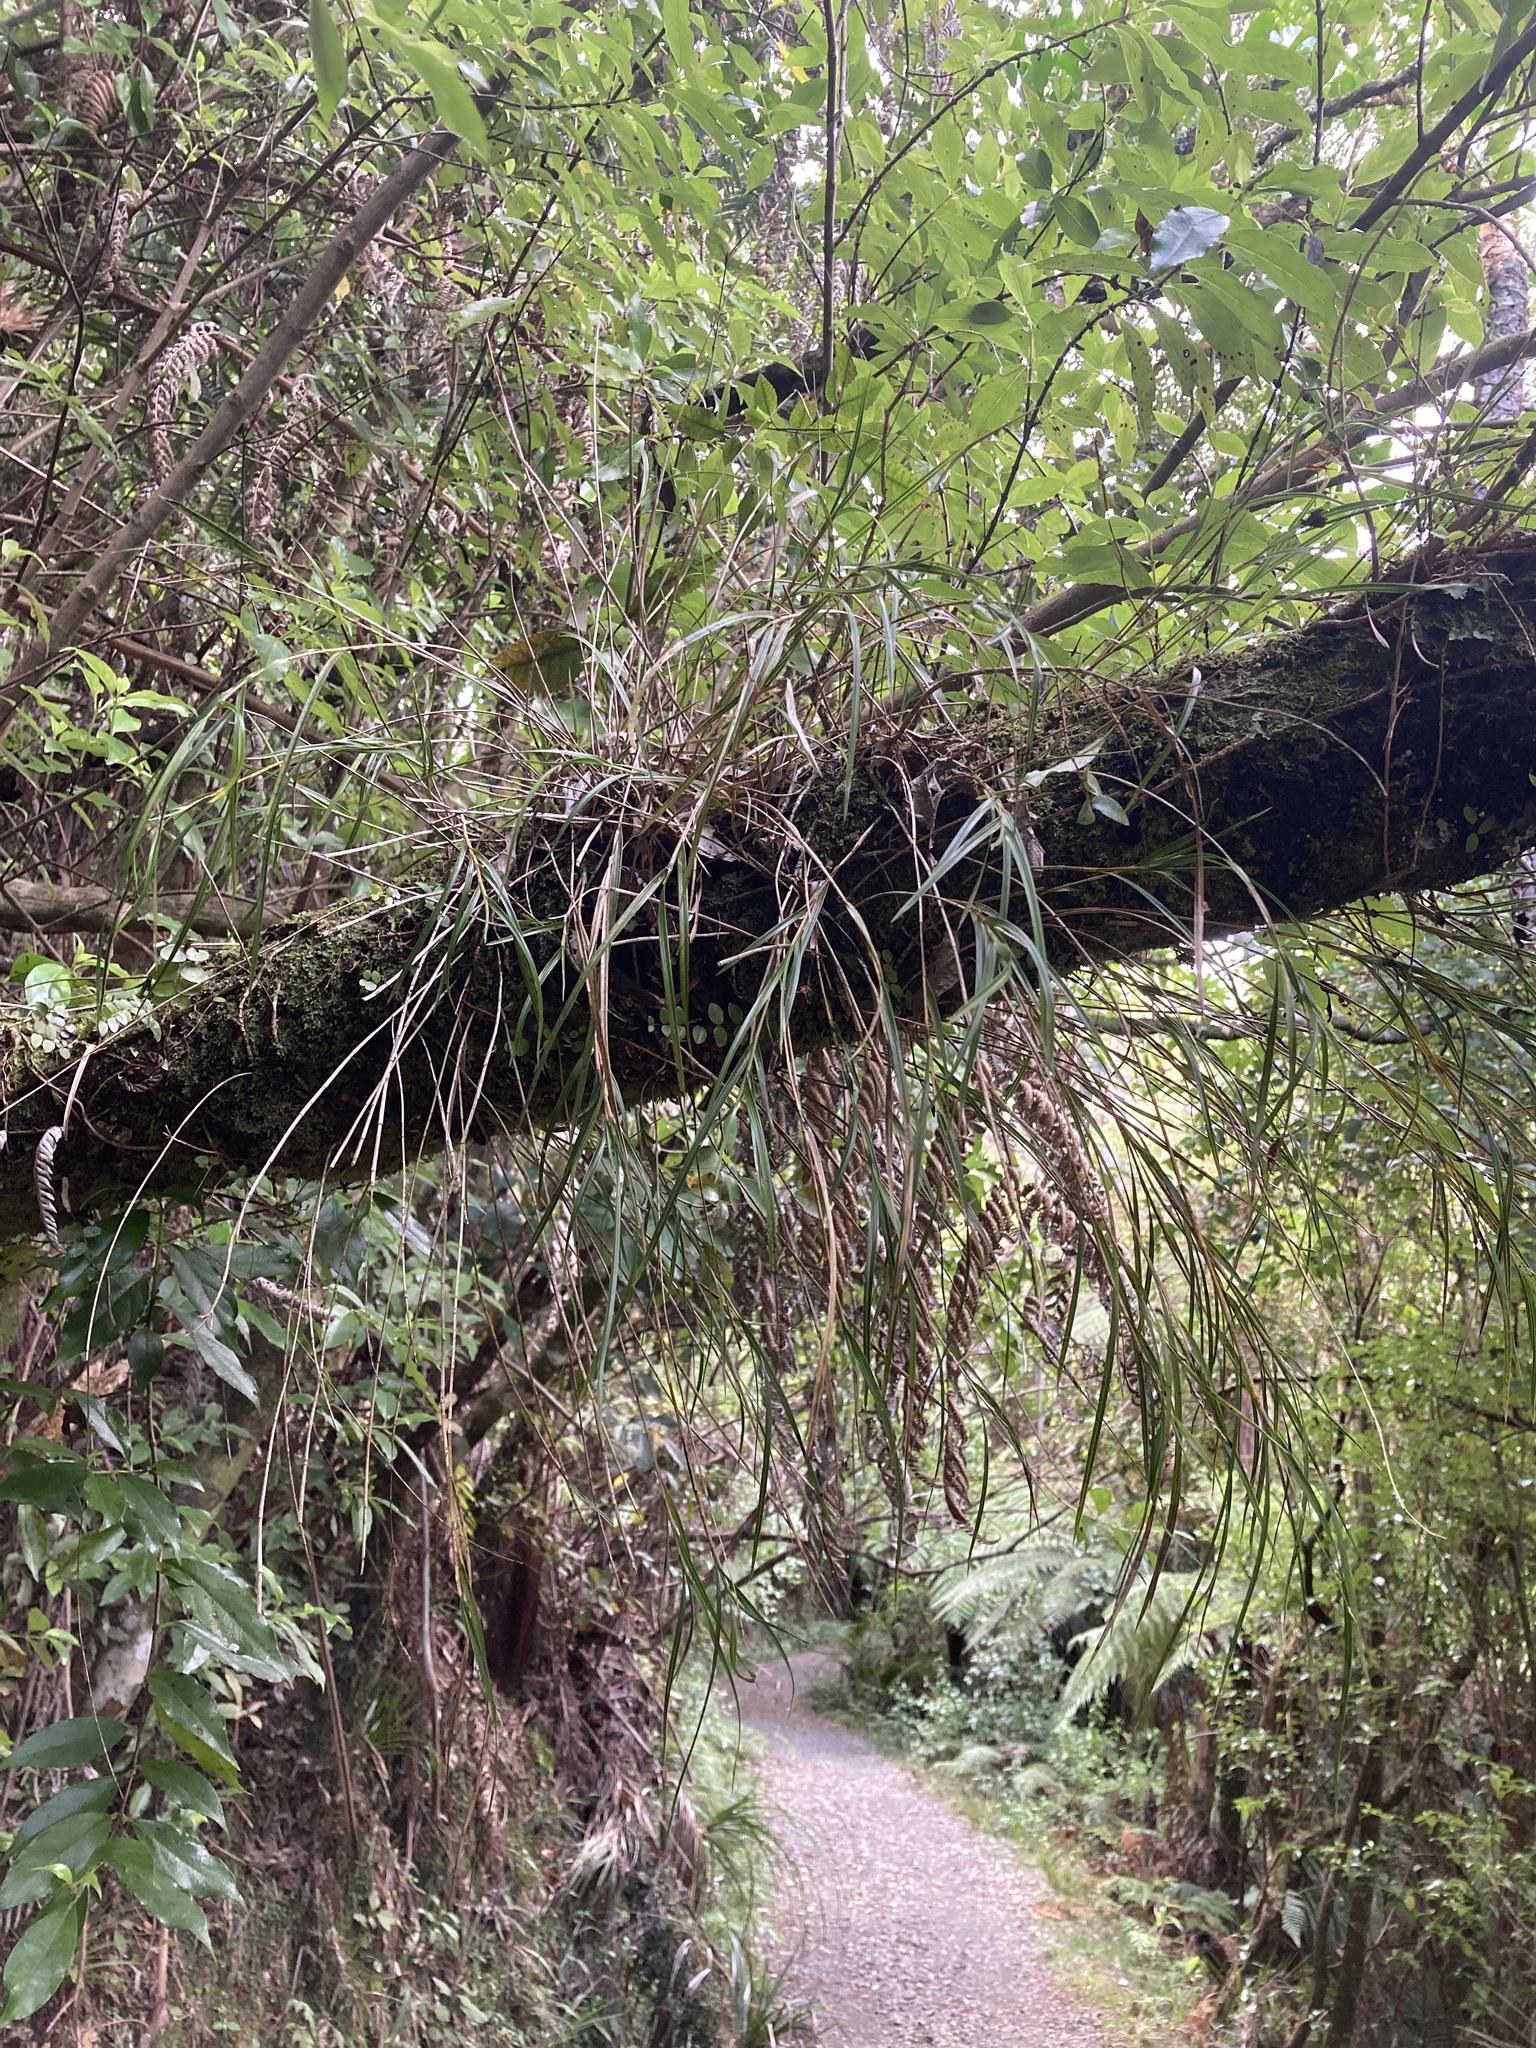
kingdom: Plantae
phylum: Tracheophyta
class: Liliopsida
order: Asparagales
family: Orchidaceae
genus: Earina
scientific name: Earina mucronata
